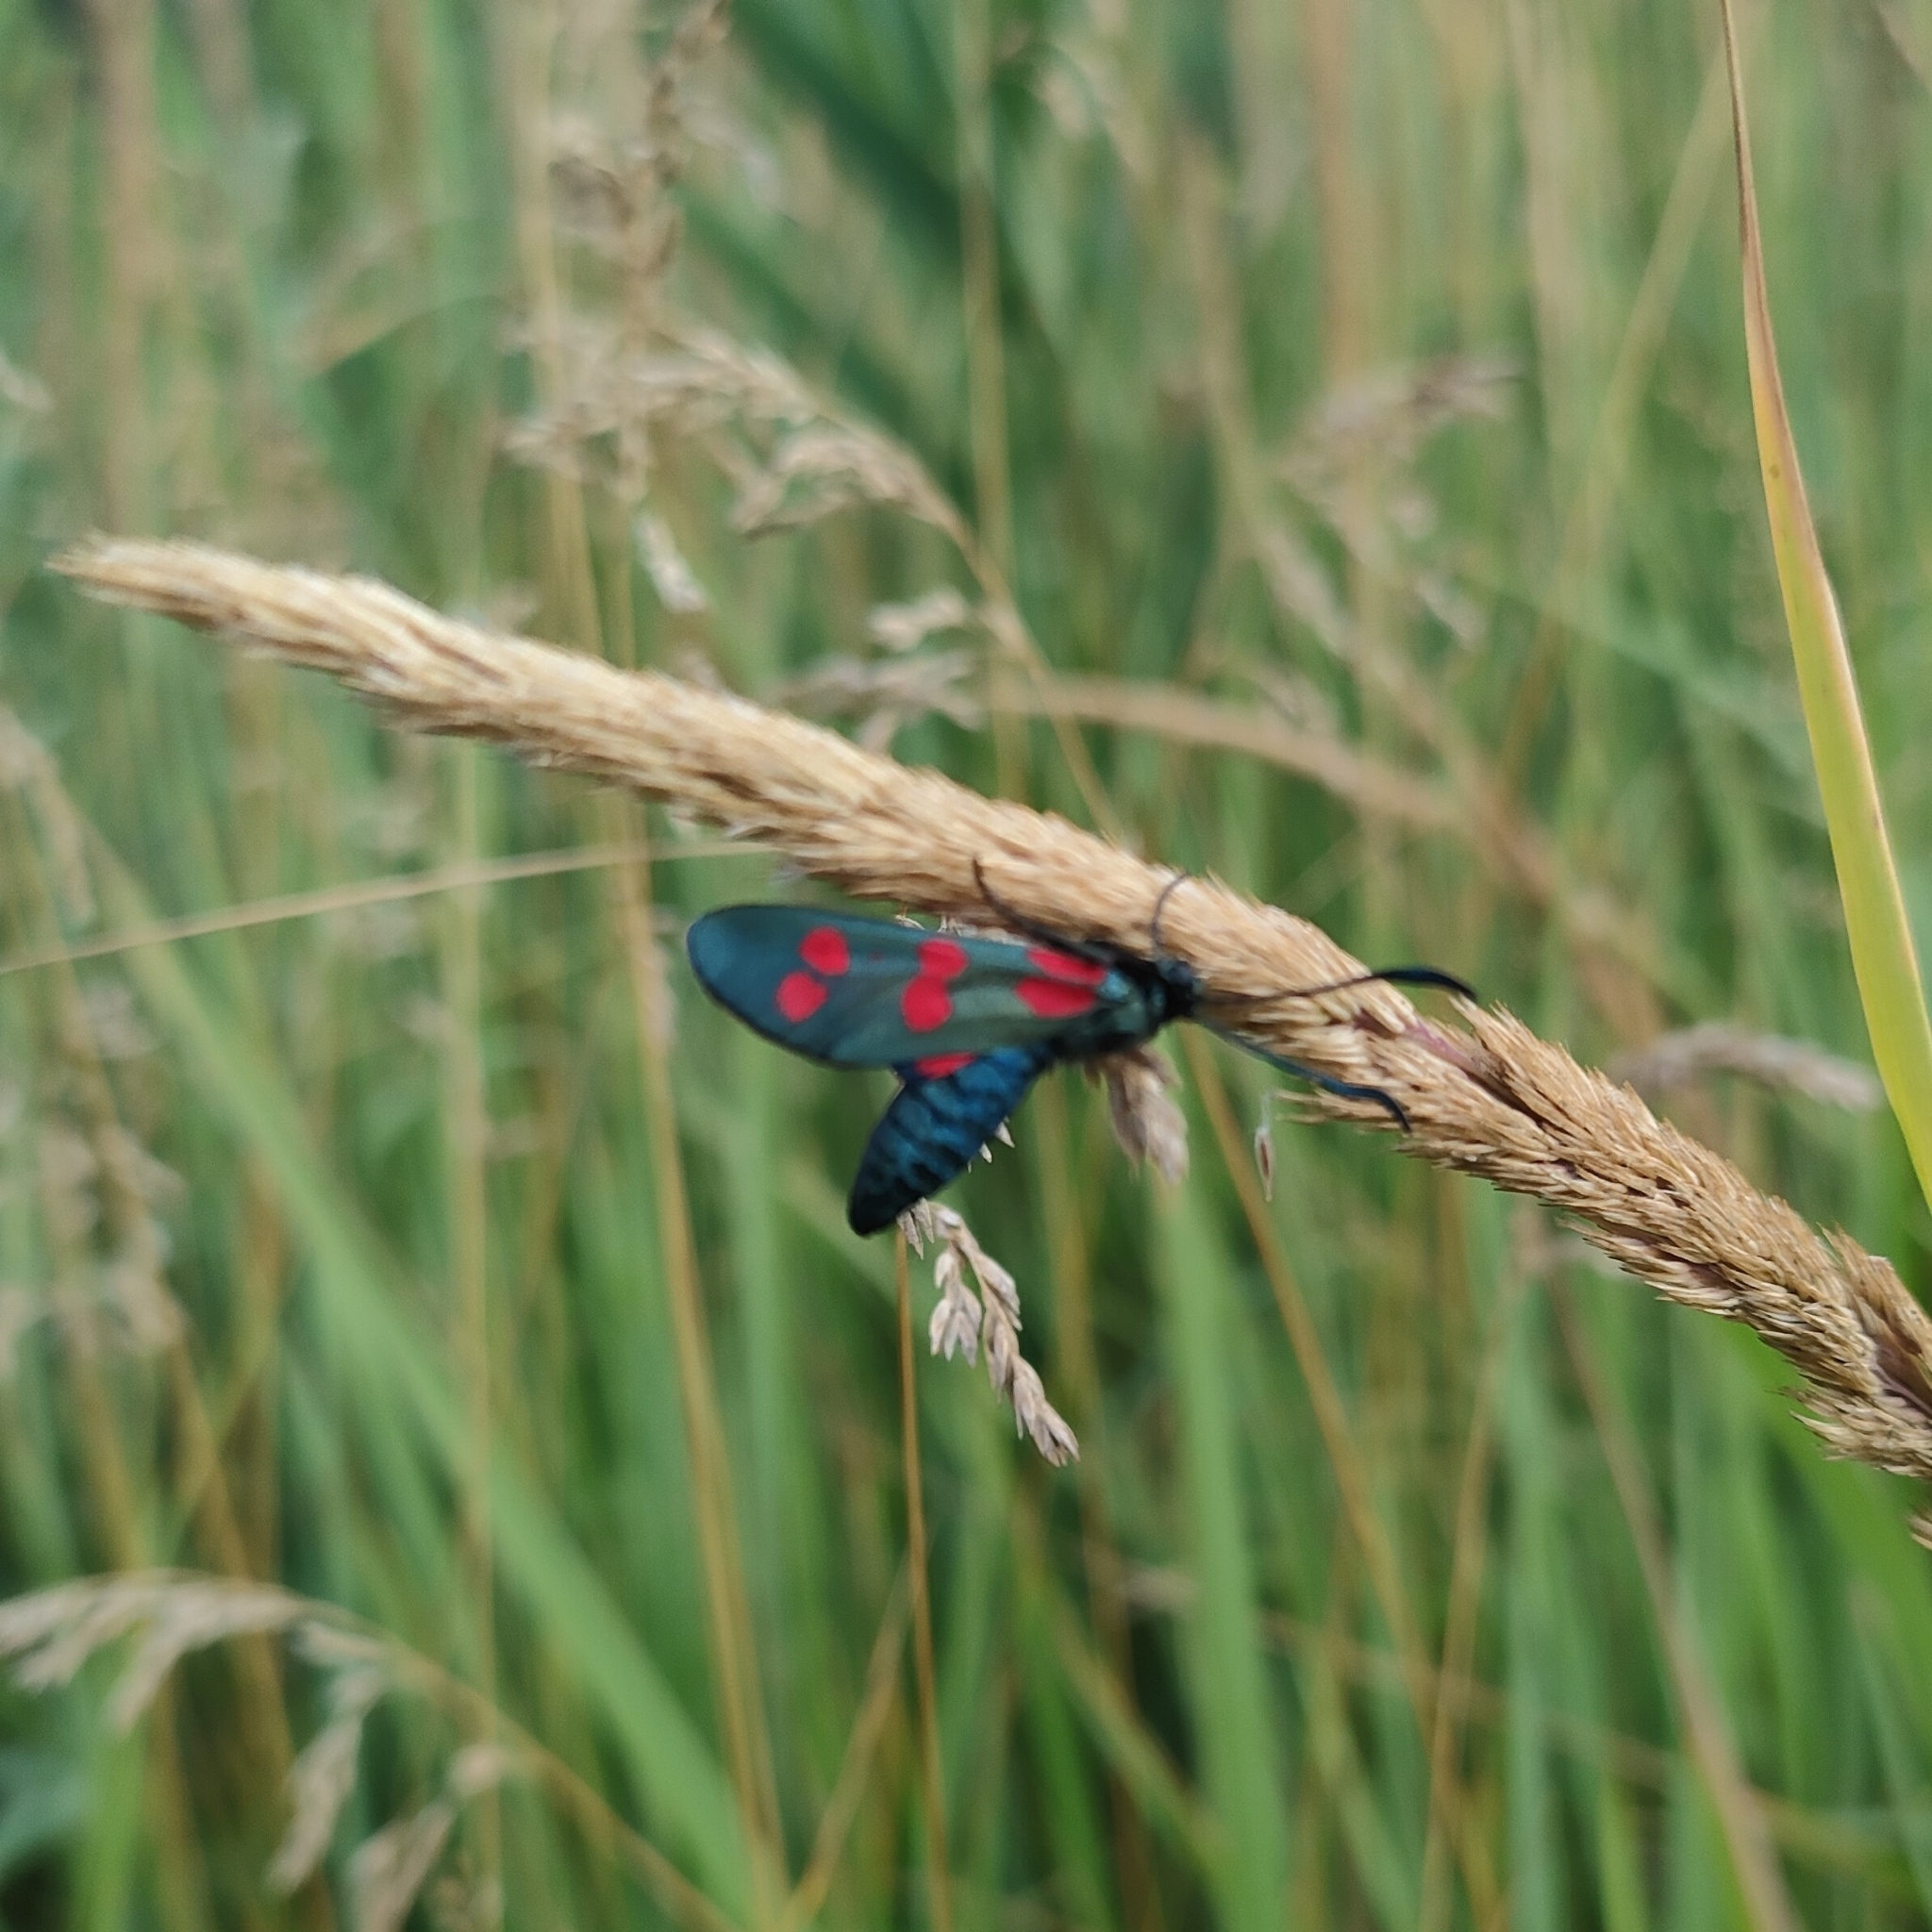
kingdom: Animalia
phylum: Arthropoda
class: Insecta
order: Lepidoptera
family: Zygaenidae
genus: Zygaena
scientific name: Zygaena filipendulae
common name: Six-spot burnet
